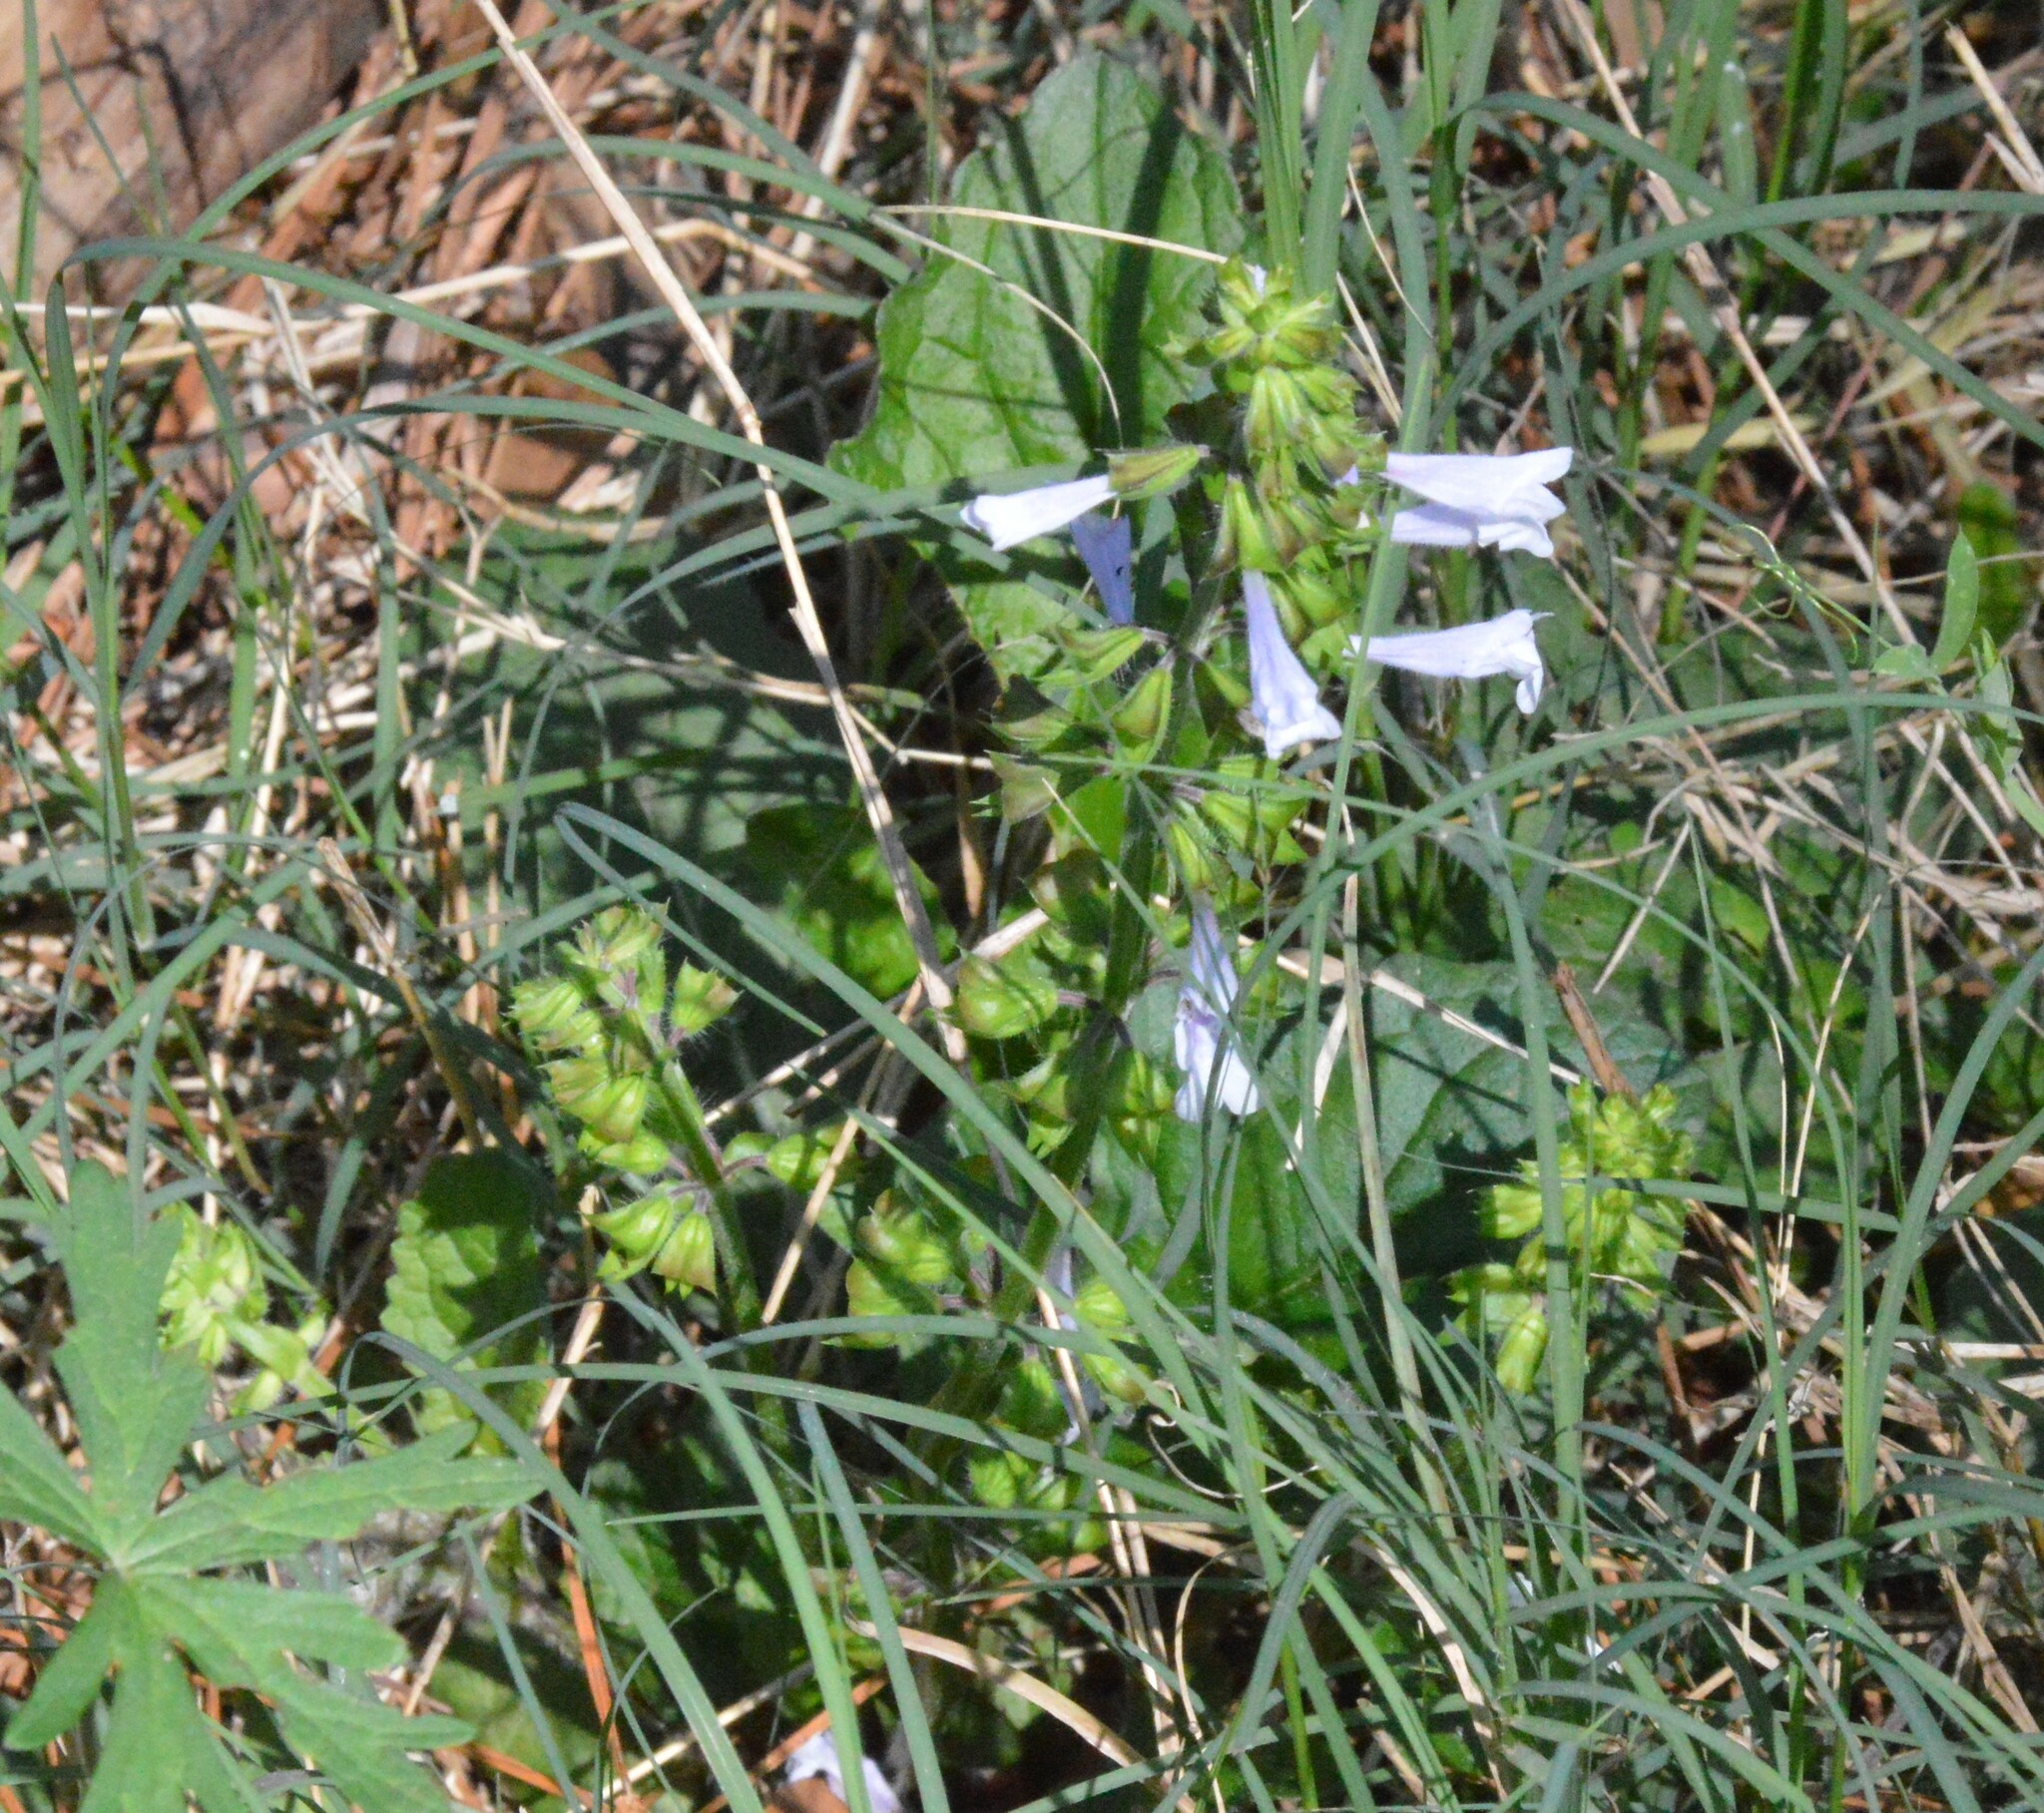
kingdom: Plantae
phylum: Tracheophyta
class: Magnoliopsida
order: Lamiales
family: Lamiaceae
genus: Salvia
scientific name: Salvia lyrata
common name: Cancerweed
